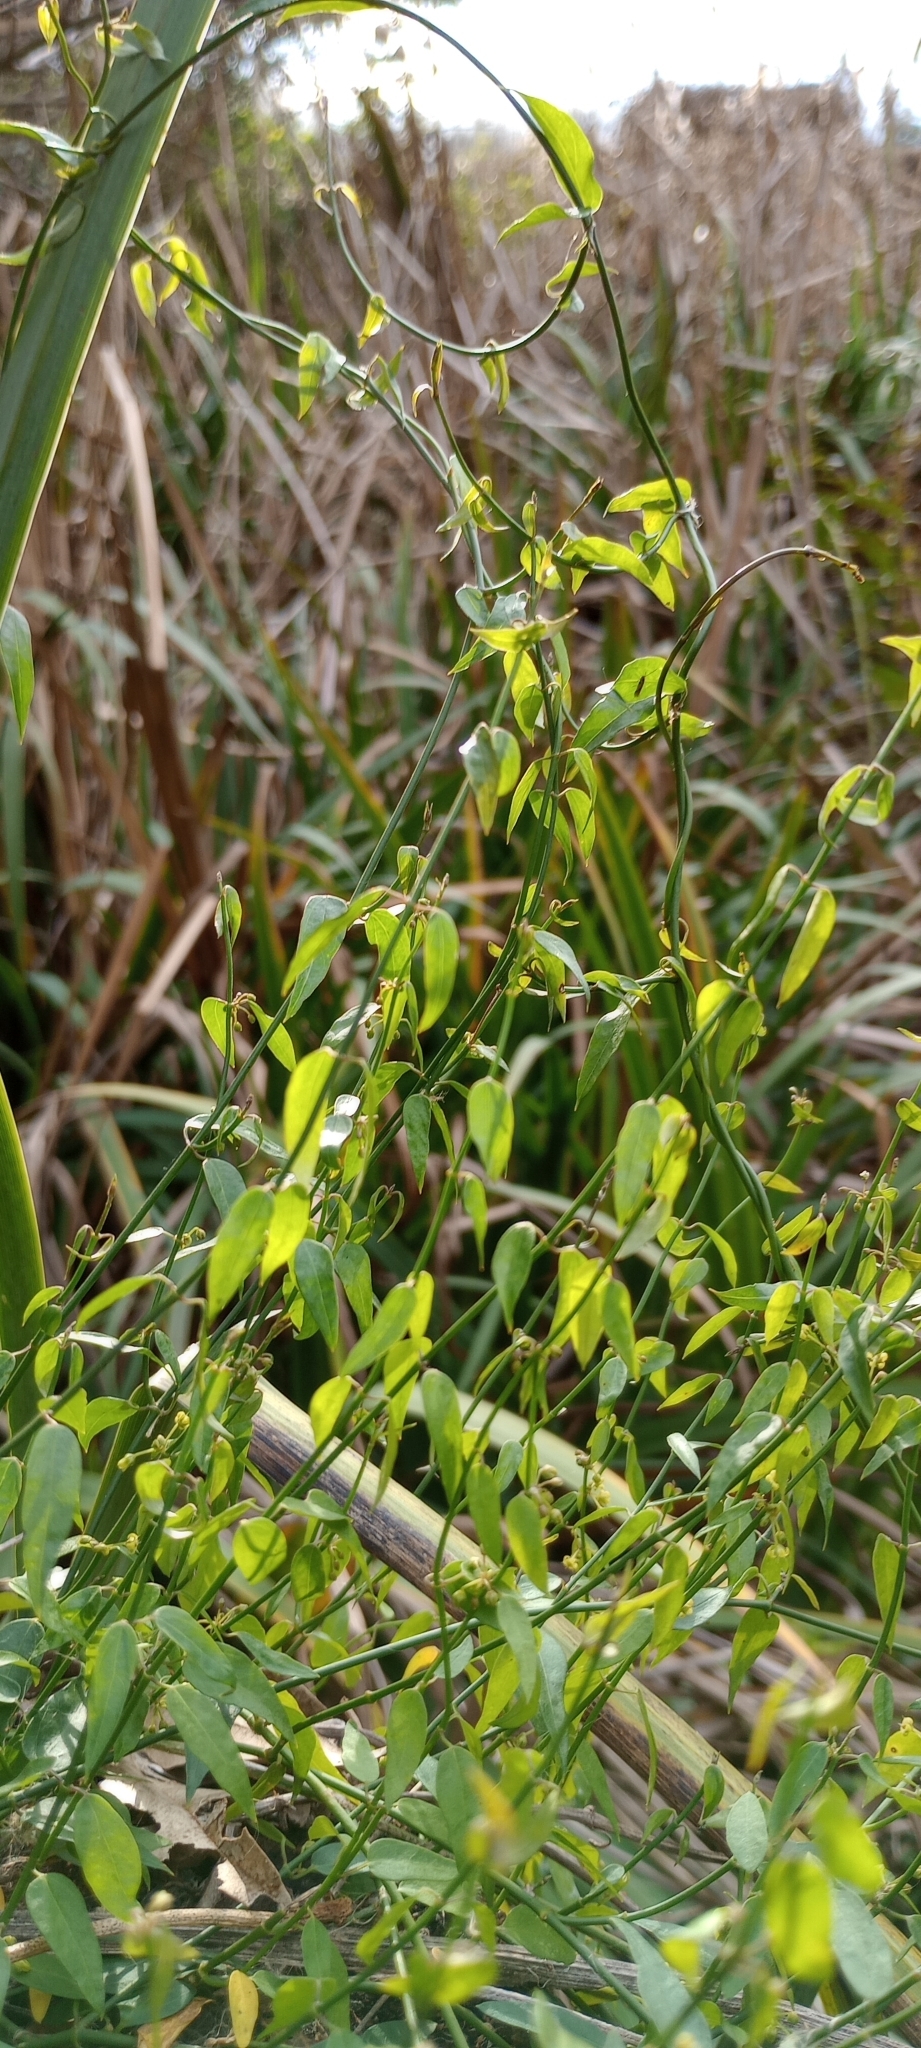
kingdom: Plantae
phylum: Tracheophyta
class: Magnoliopsida
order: Gentianales
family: Apocynaceae
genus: Orthosia
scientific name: Orthosia virgata
